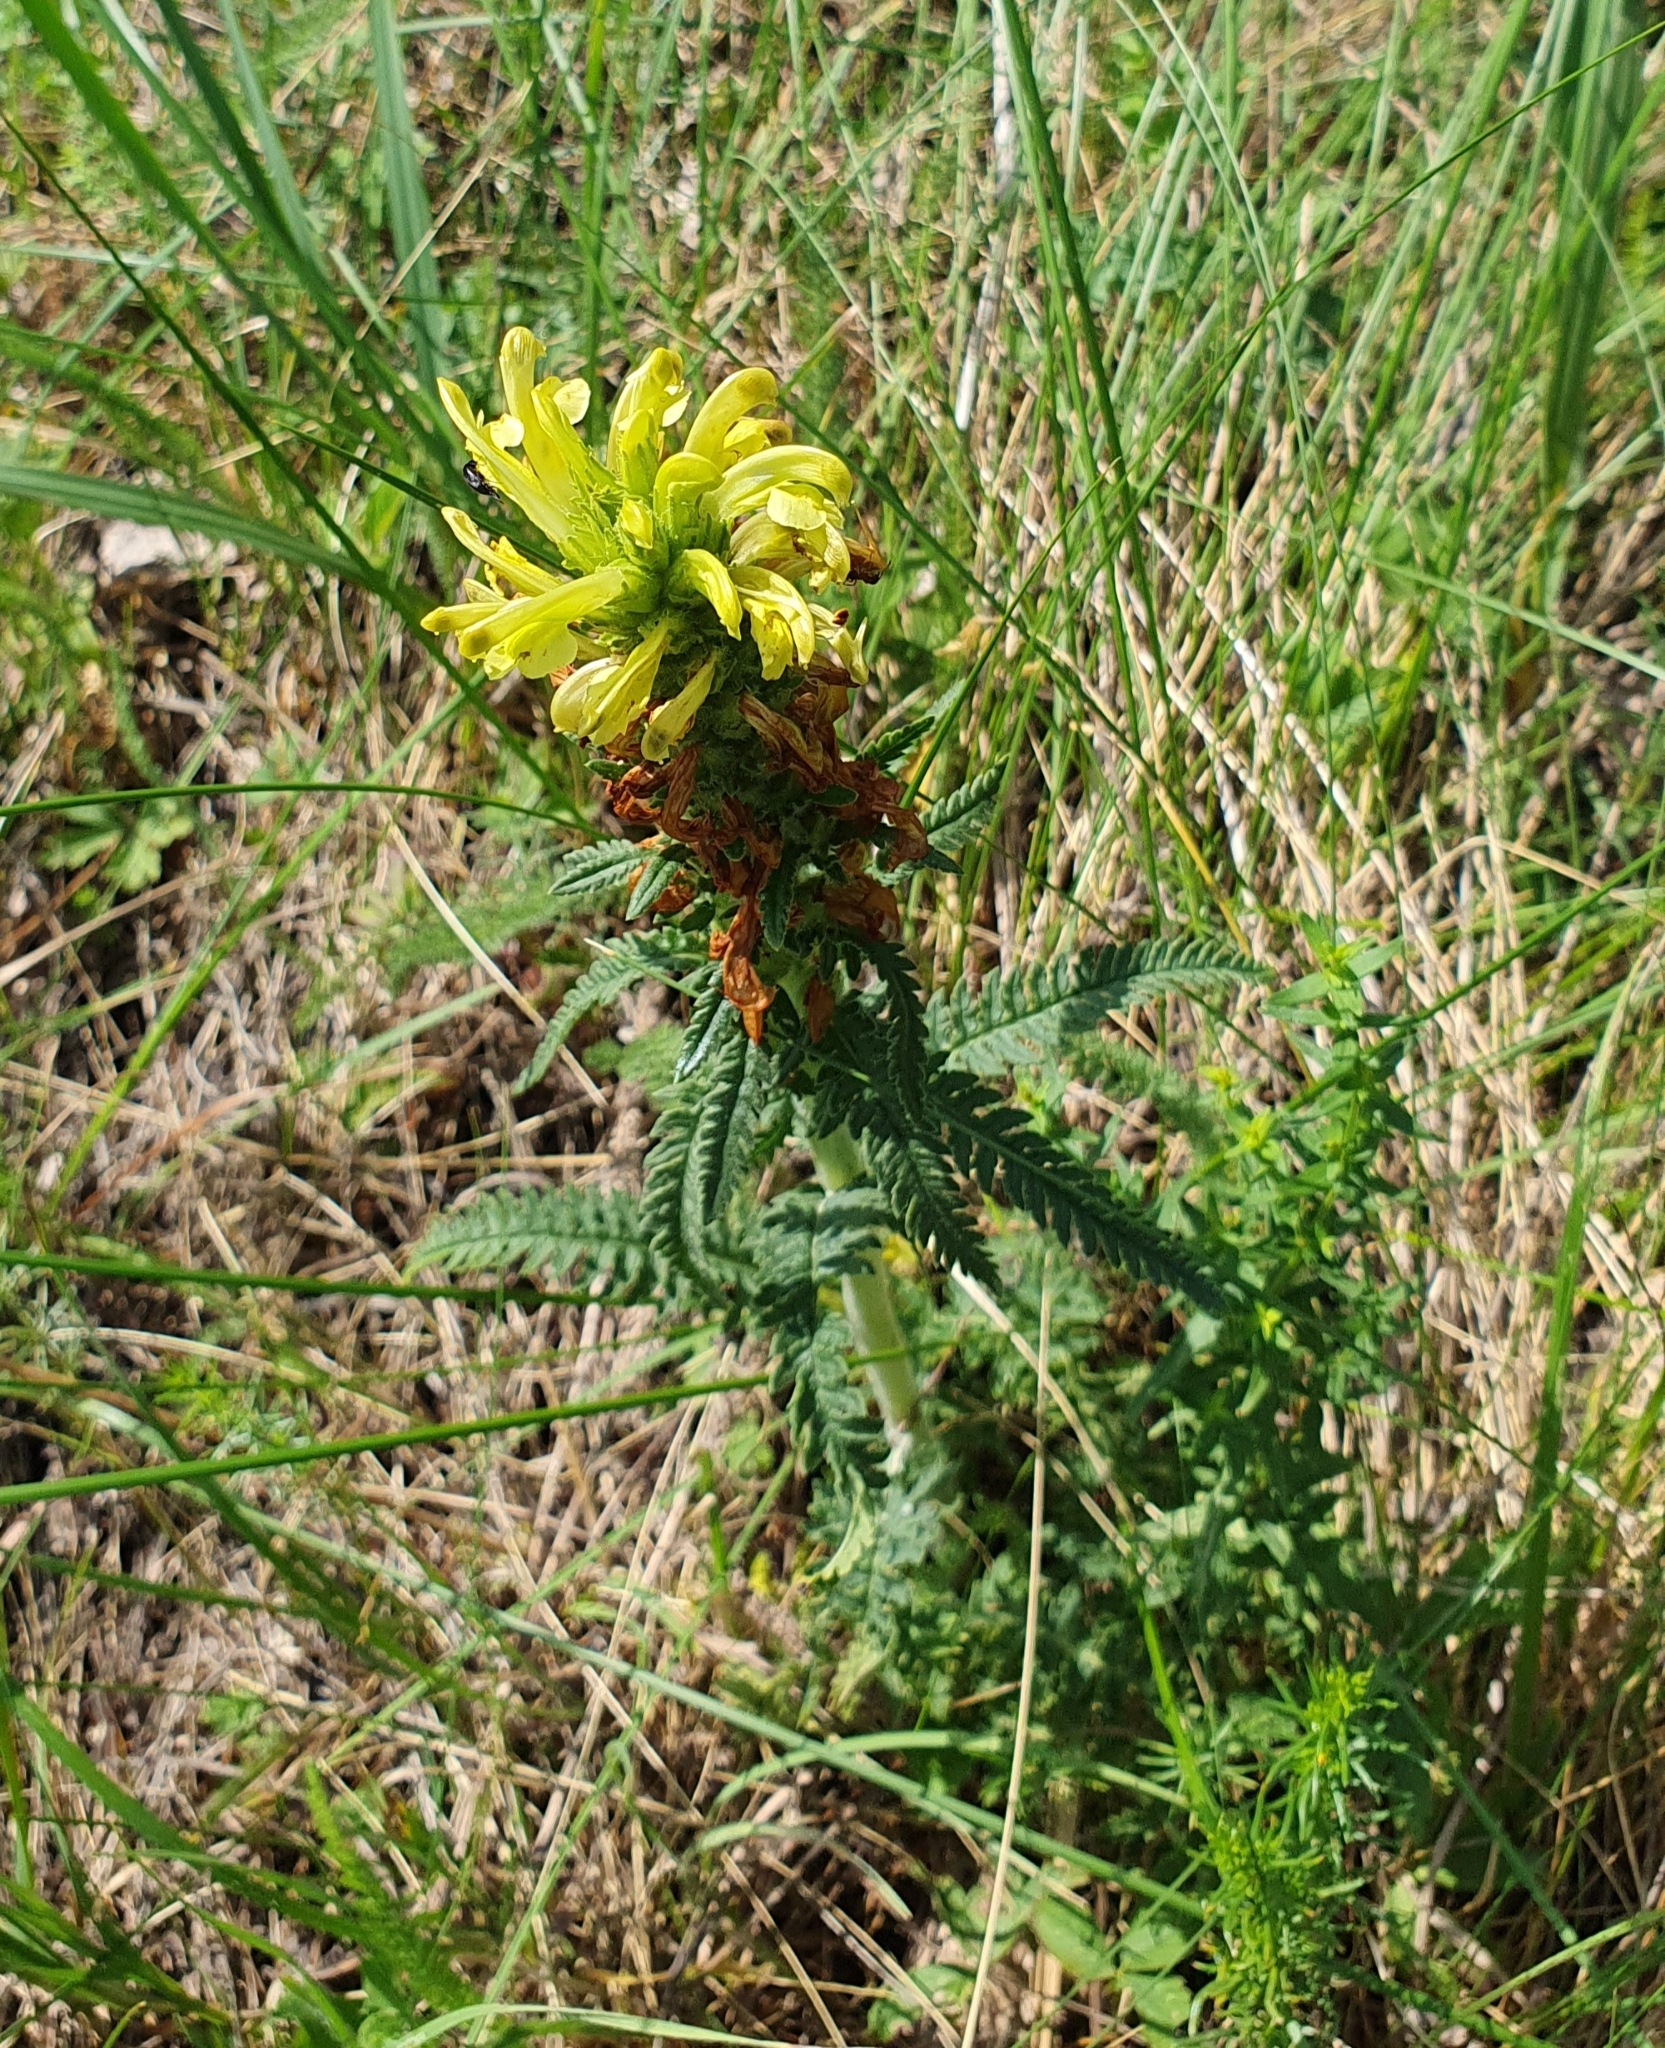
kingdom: Plantae
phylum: Tracheophyta
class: Magnoliopsida
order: Lamiales
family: Orobanchaceae
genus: Pedicularis
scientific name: Pedicularis kaufmannii
